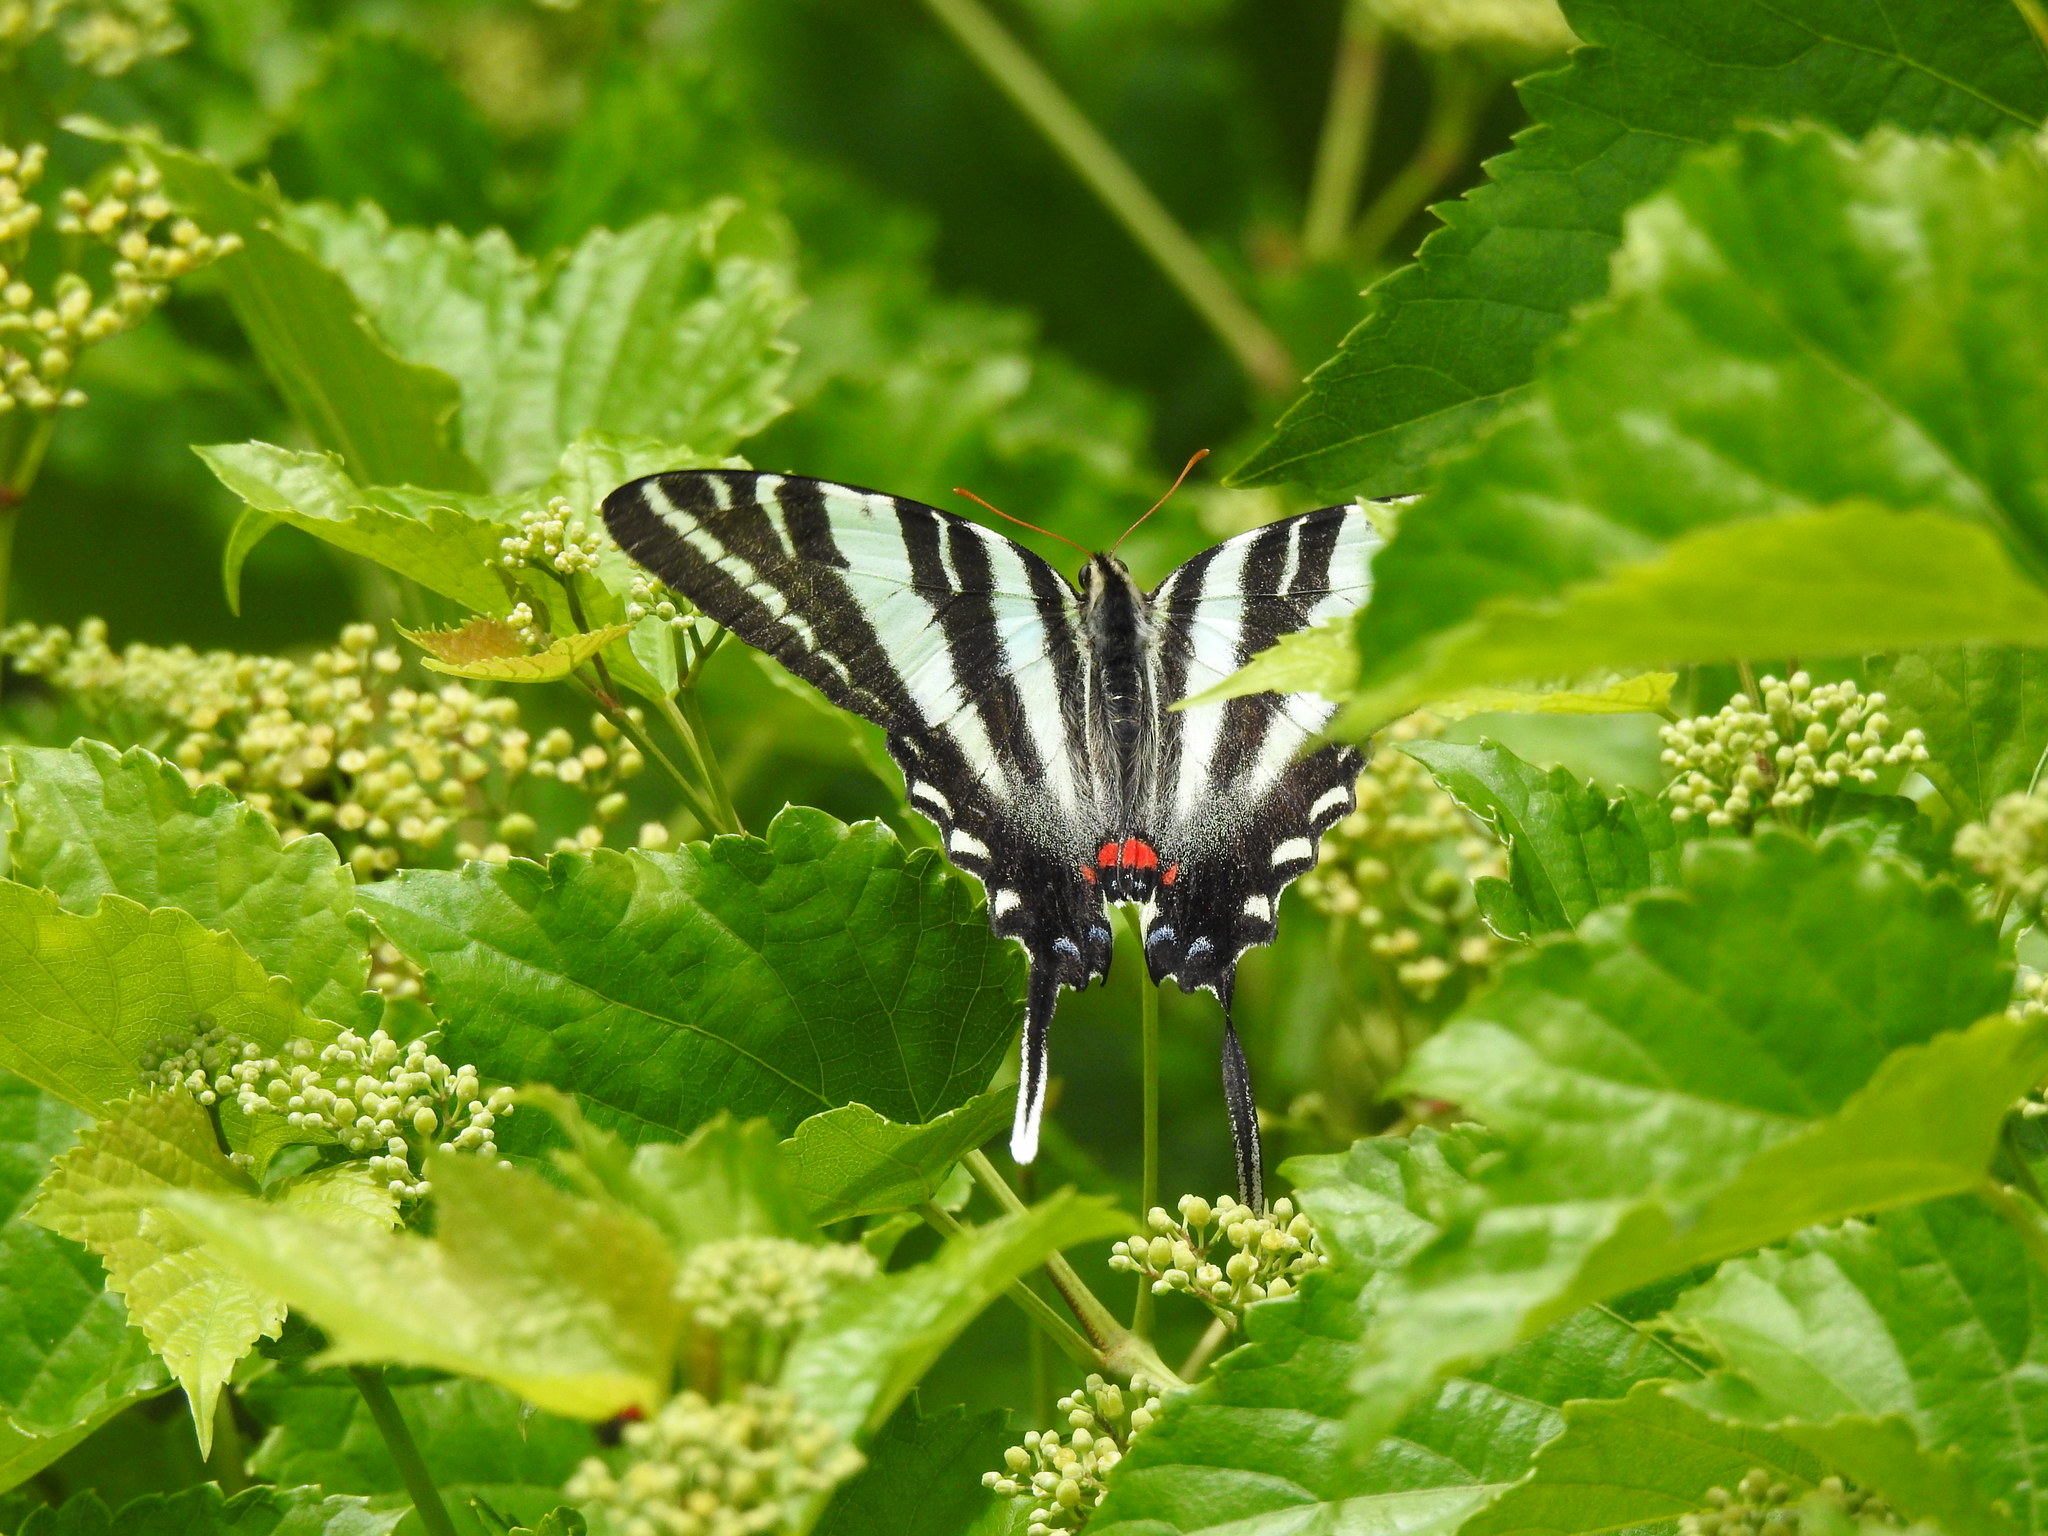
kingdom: Animalia
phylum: Arthropoda
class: Insecta
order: Lepidoptera
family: Papilionidae
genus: Protographium
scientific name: Protographium marcellus
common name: Zebra swallowtail
